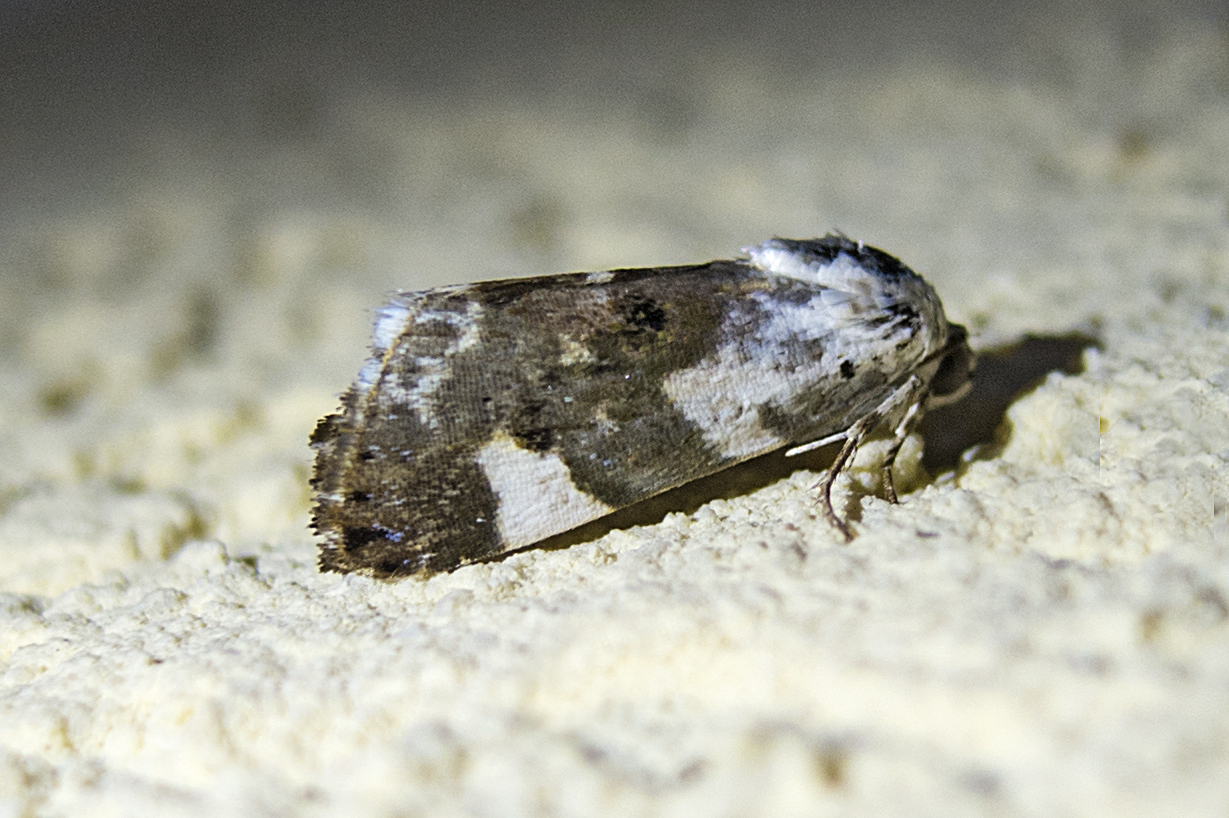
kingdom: Animalia
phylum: Arthropoda
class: Insecta
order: Lepidoptera
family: Noctuidae
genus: Acontia
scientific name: Acontia lucida
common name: Pale shoulder
